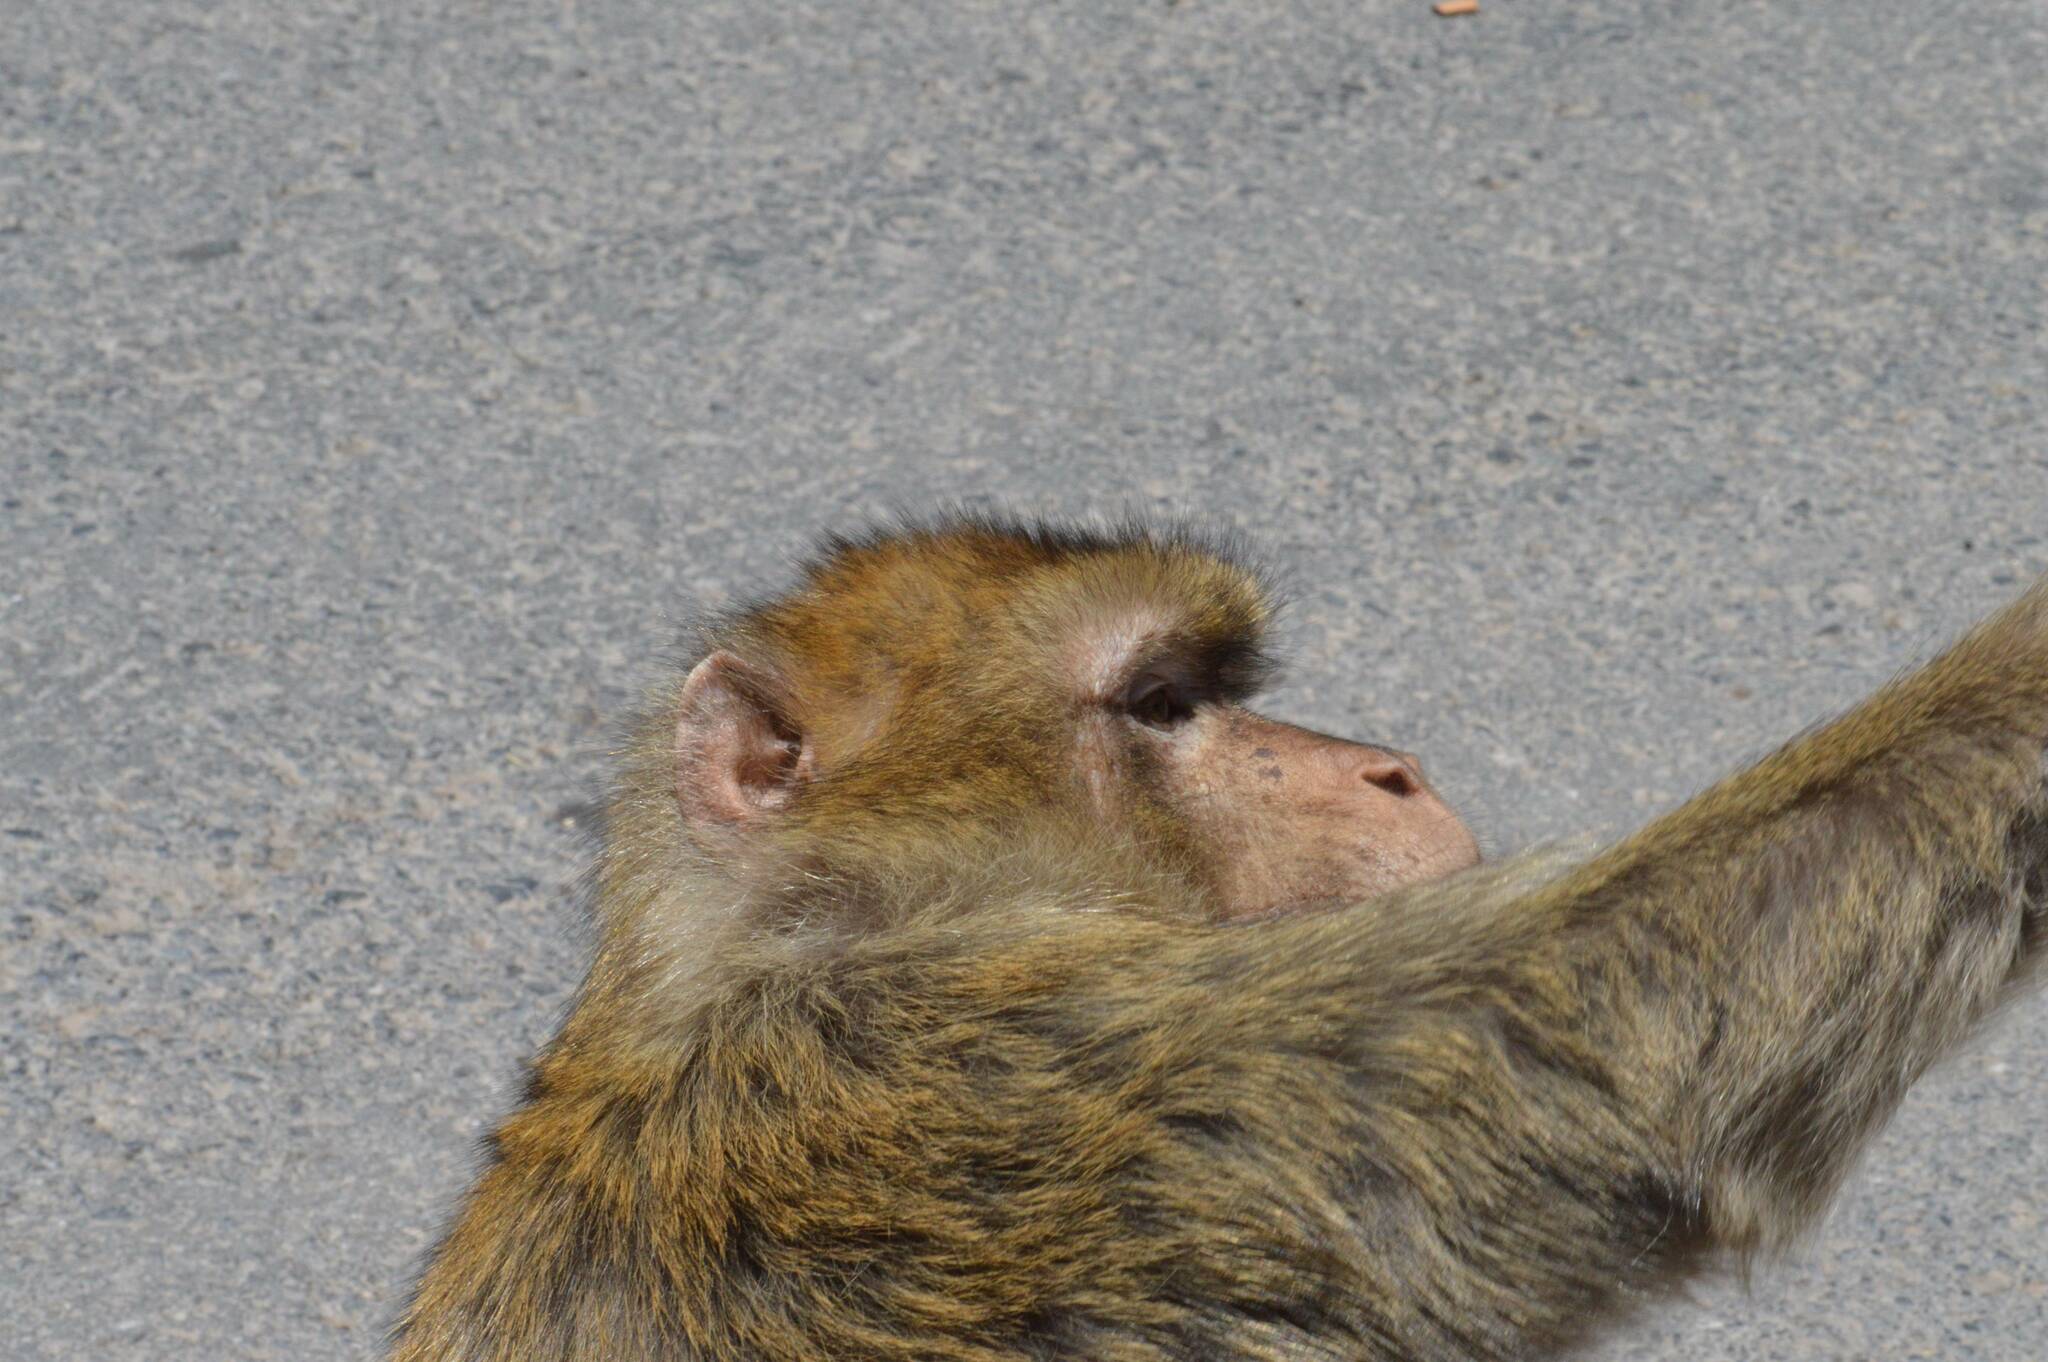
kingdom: Animalia
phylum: Chordata
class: Mammalia
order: Primates
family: Cercopithecidae
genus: Macaca
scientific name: Macaca sylvanus
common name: Barbary macaque
